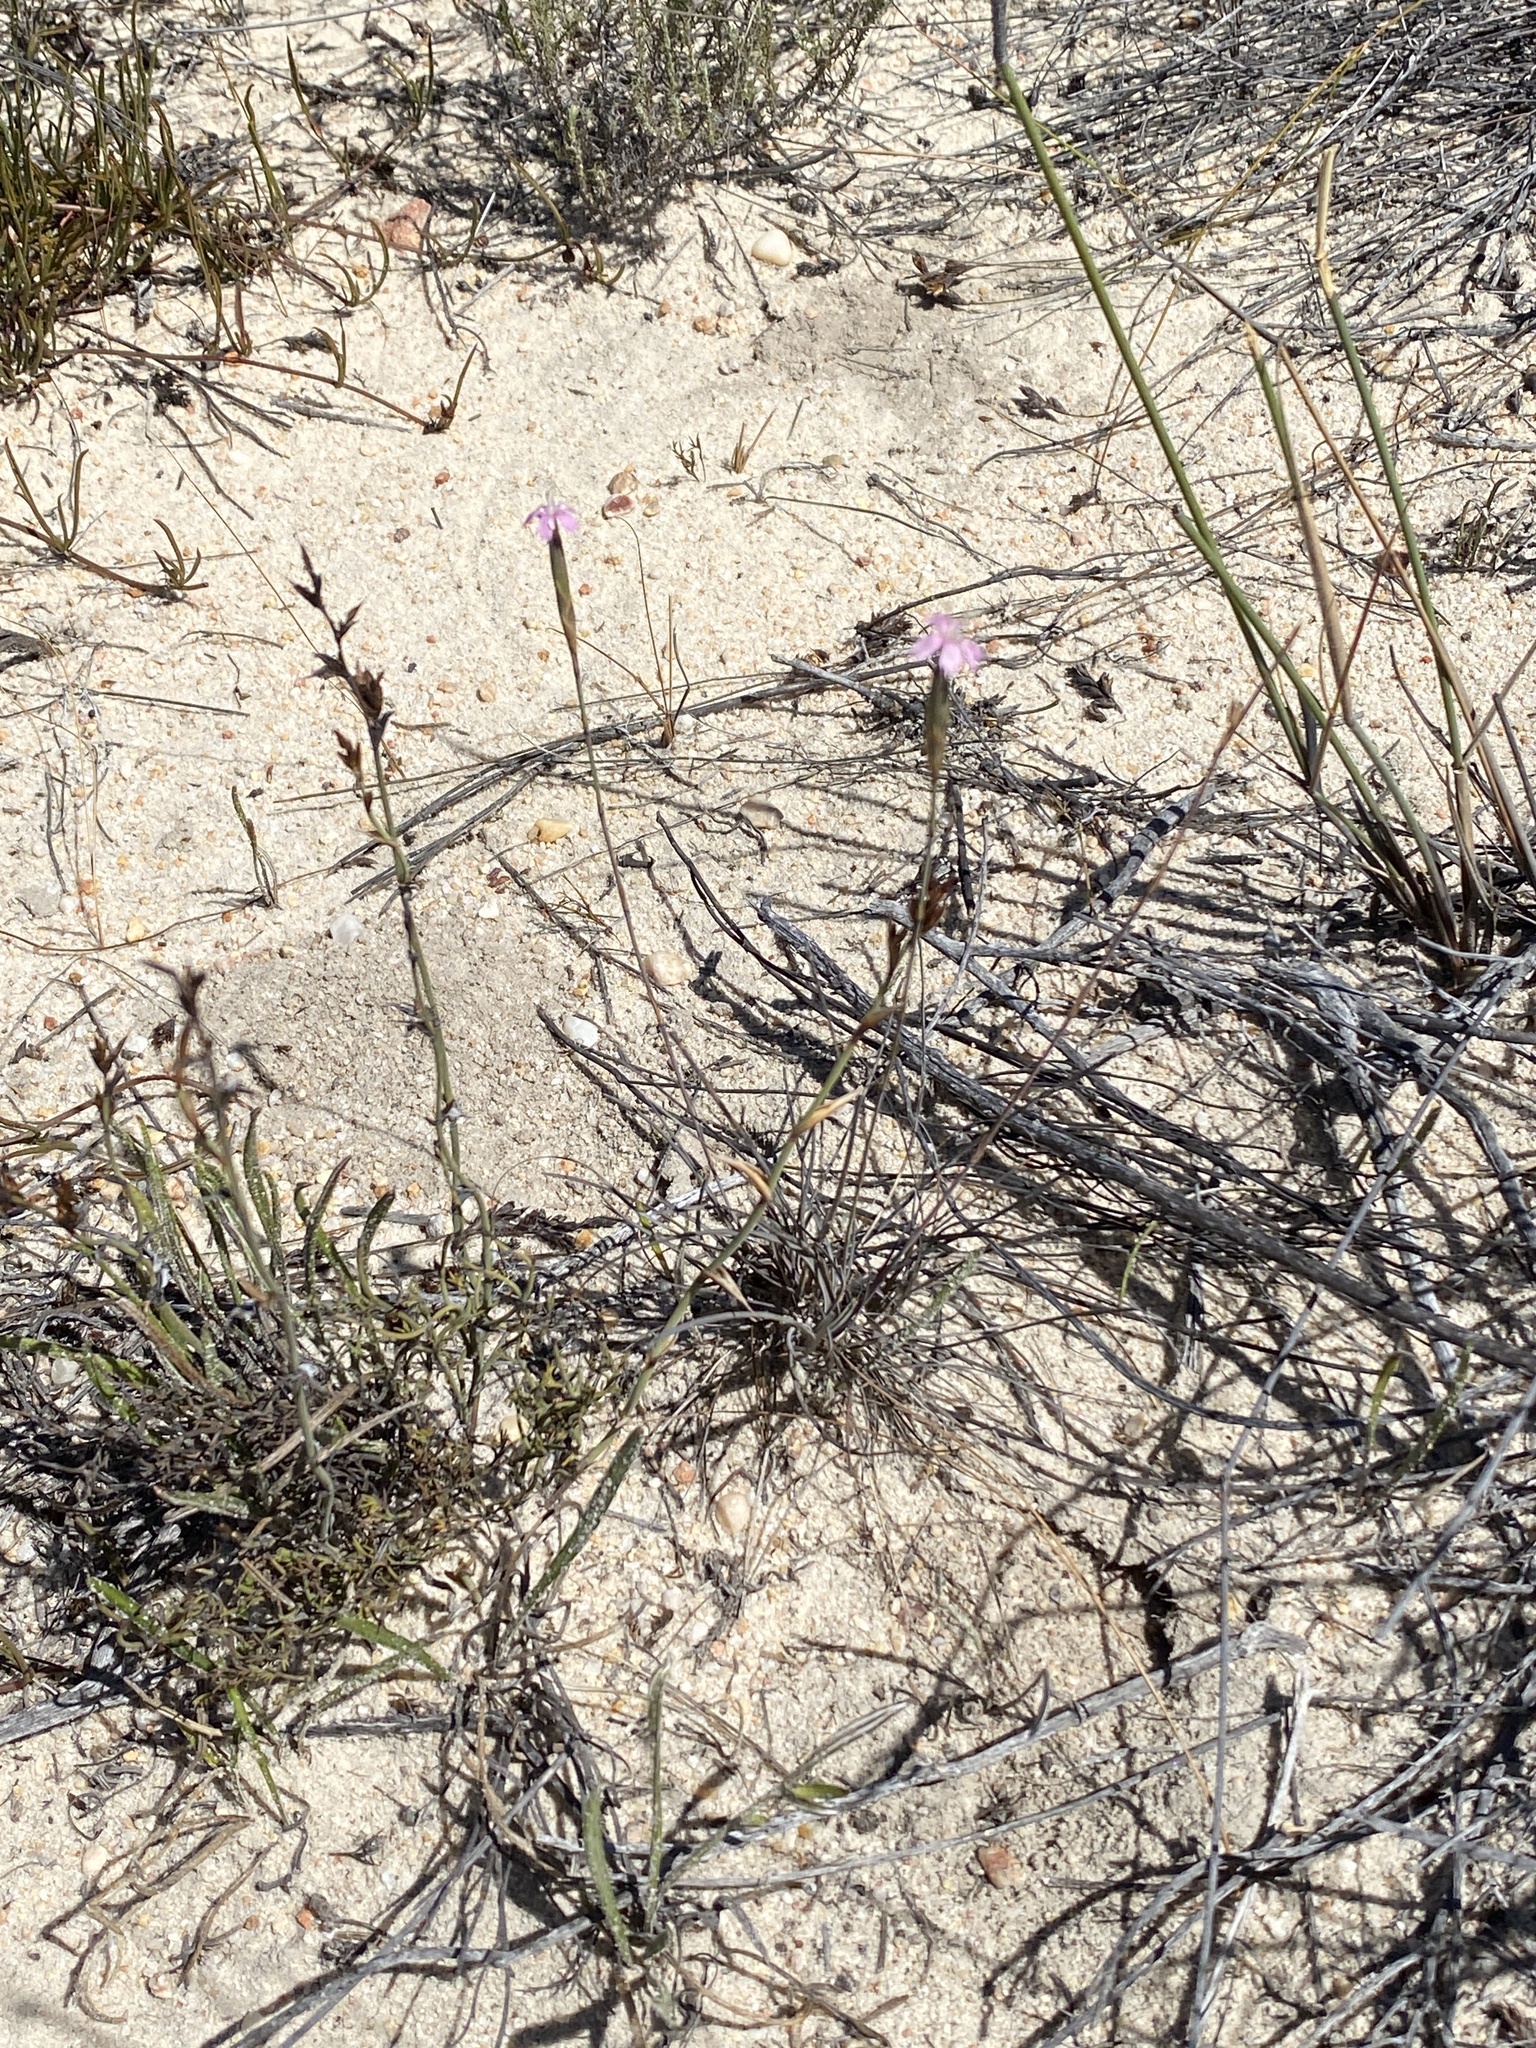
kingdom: Plantae
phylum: Tracheophyta
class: Magnoliopsida
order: Caryophyllales
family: Caryophyllaceae
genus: Dianthus
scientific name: Dianthus bolusii
